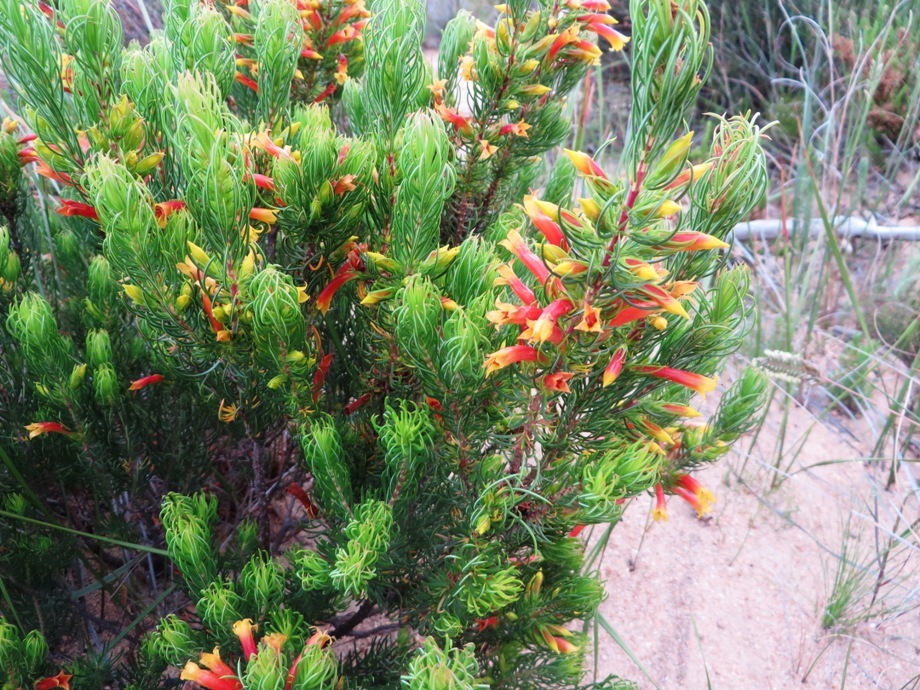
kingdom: Plantae
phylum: Tracheophyta
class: Magnoliopsida
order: Ericales
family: Ericaceae
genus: Erica
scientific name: Erica grandiflora
